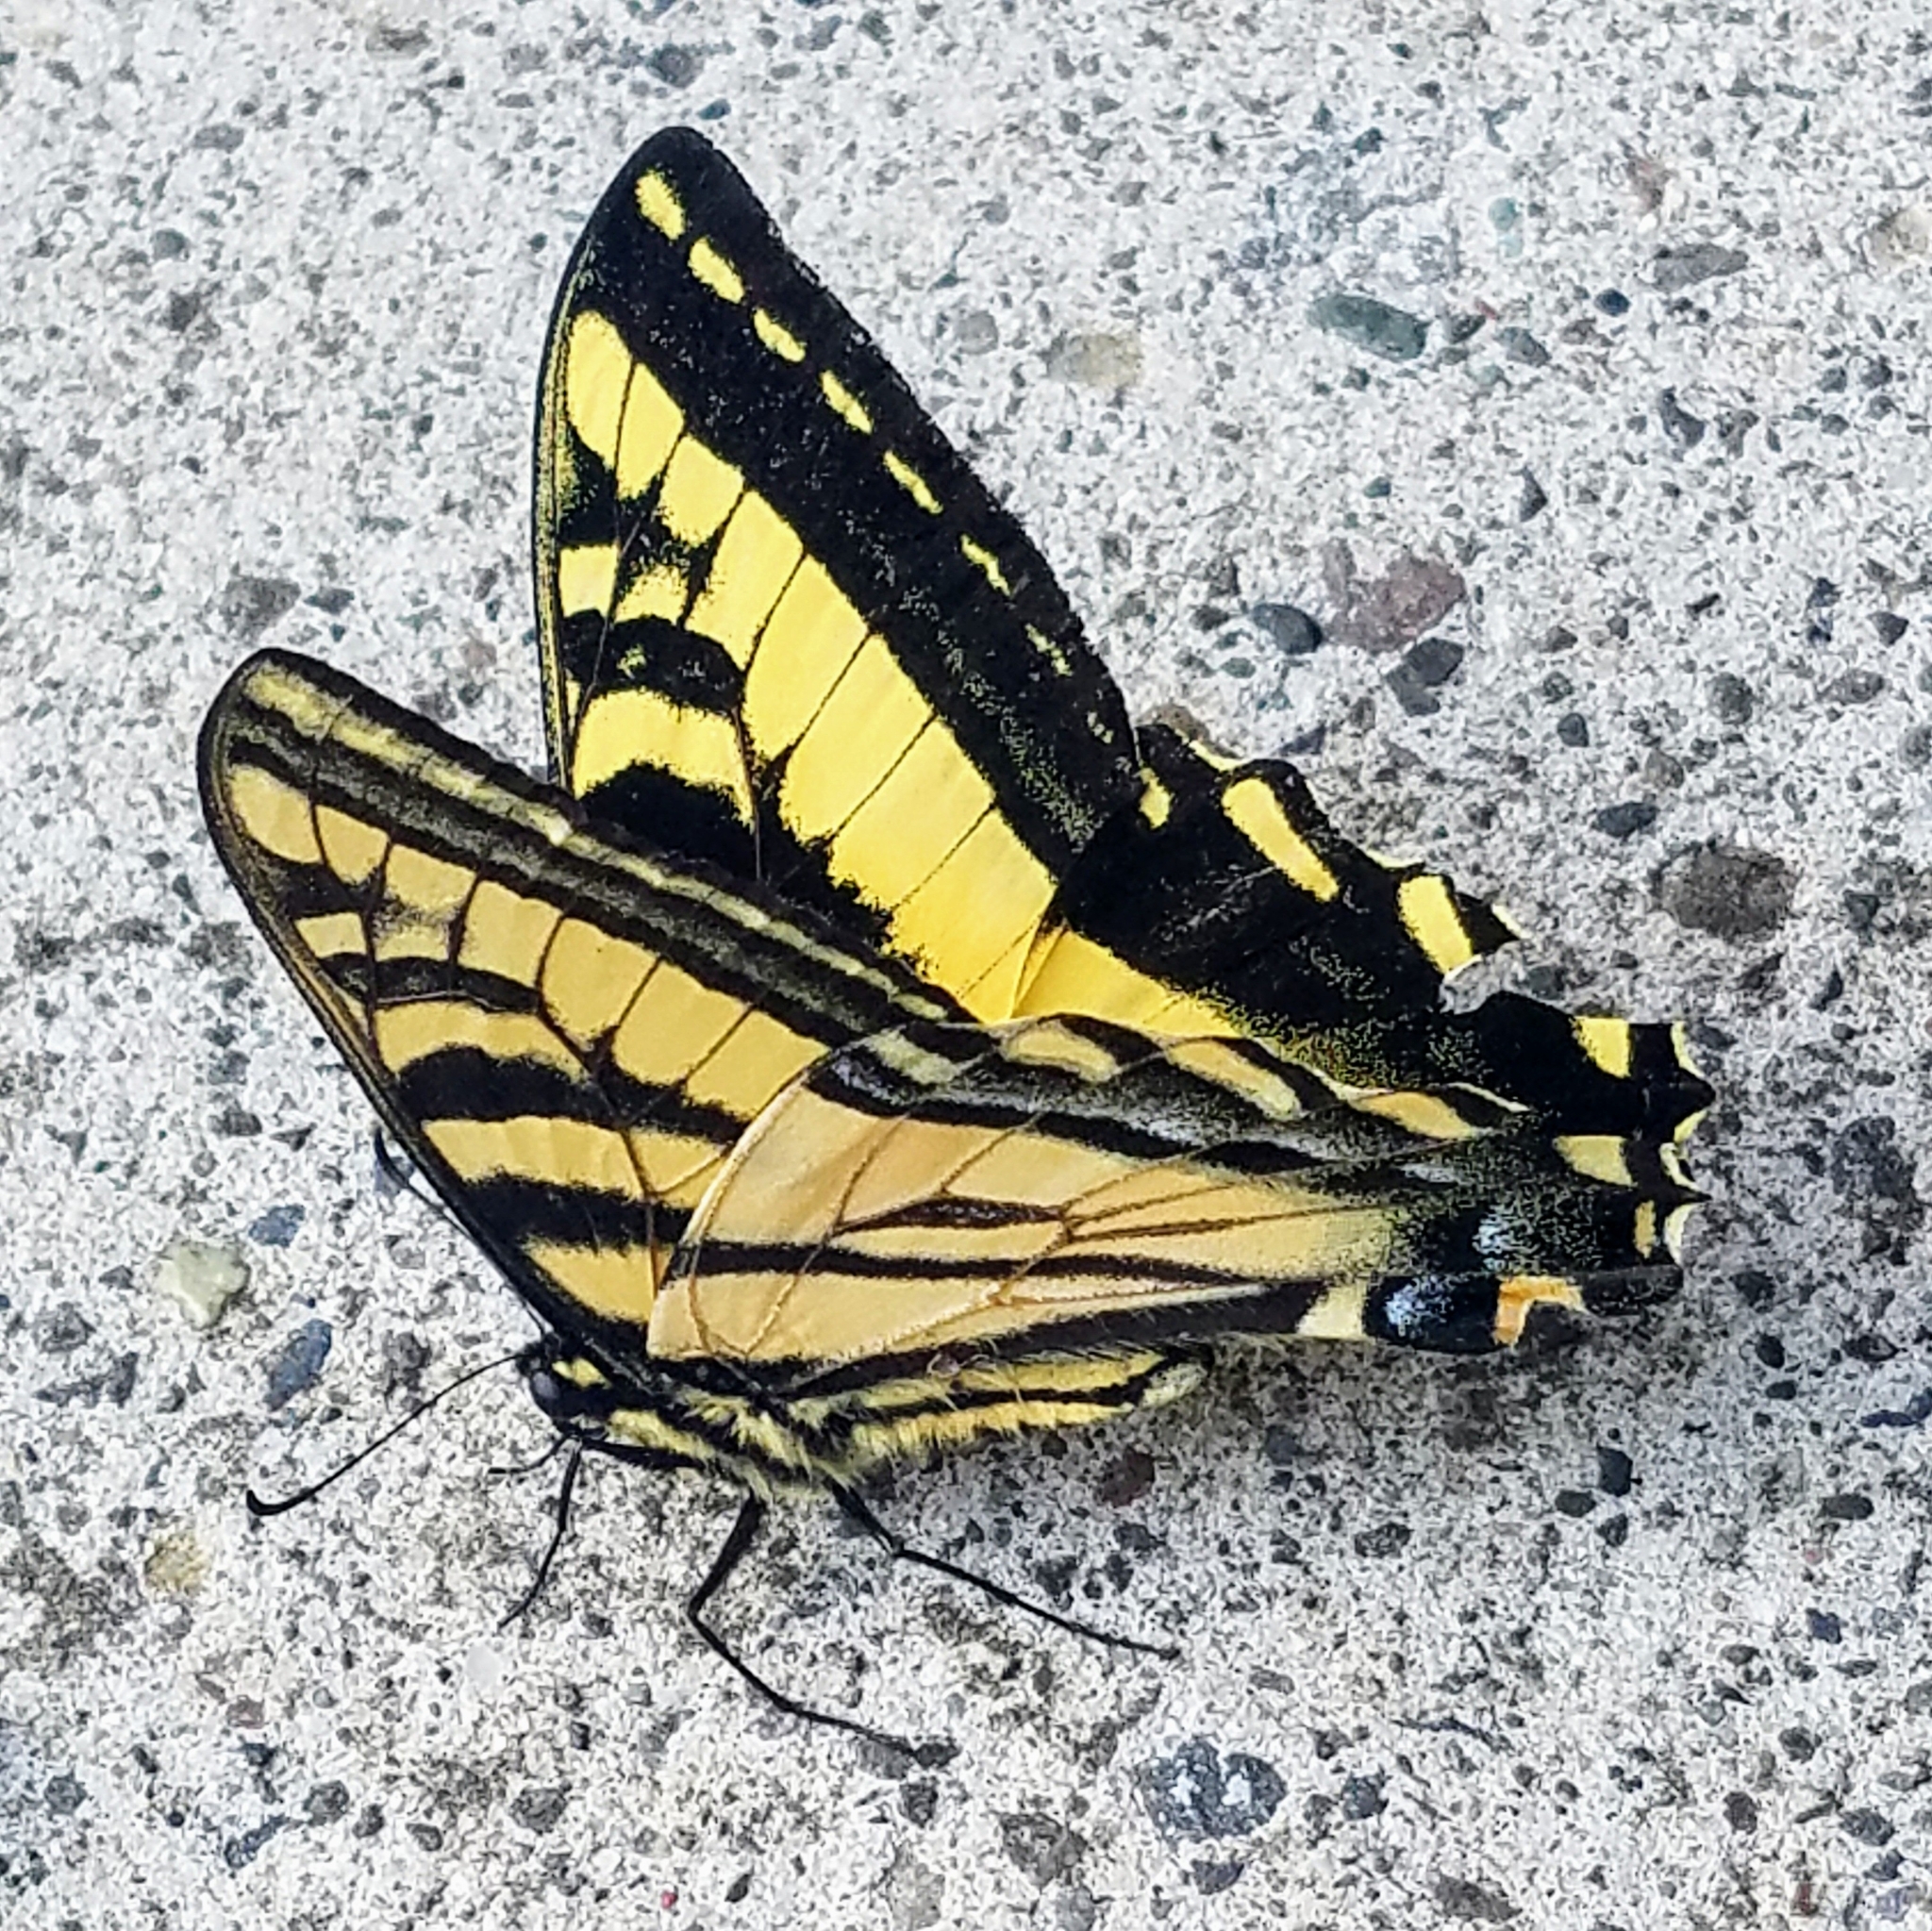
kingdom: Animalia
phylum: Arthropoda
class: Insecta
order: Lepidoptera
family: Papilionidae
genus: Papilio
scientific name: Papilio rutulus
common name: Western tiger swallowtail
